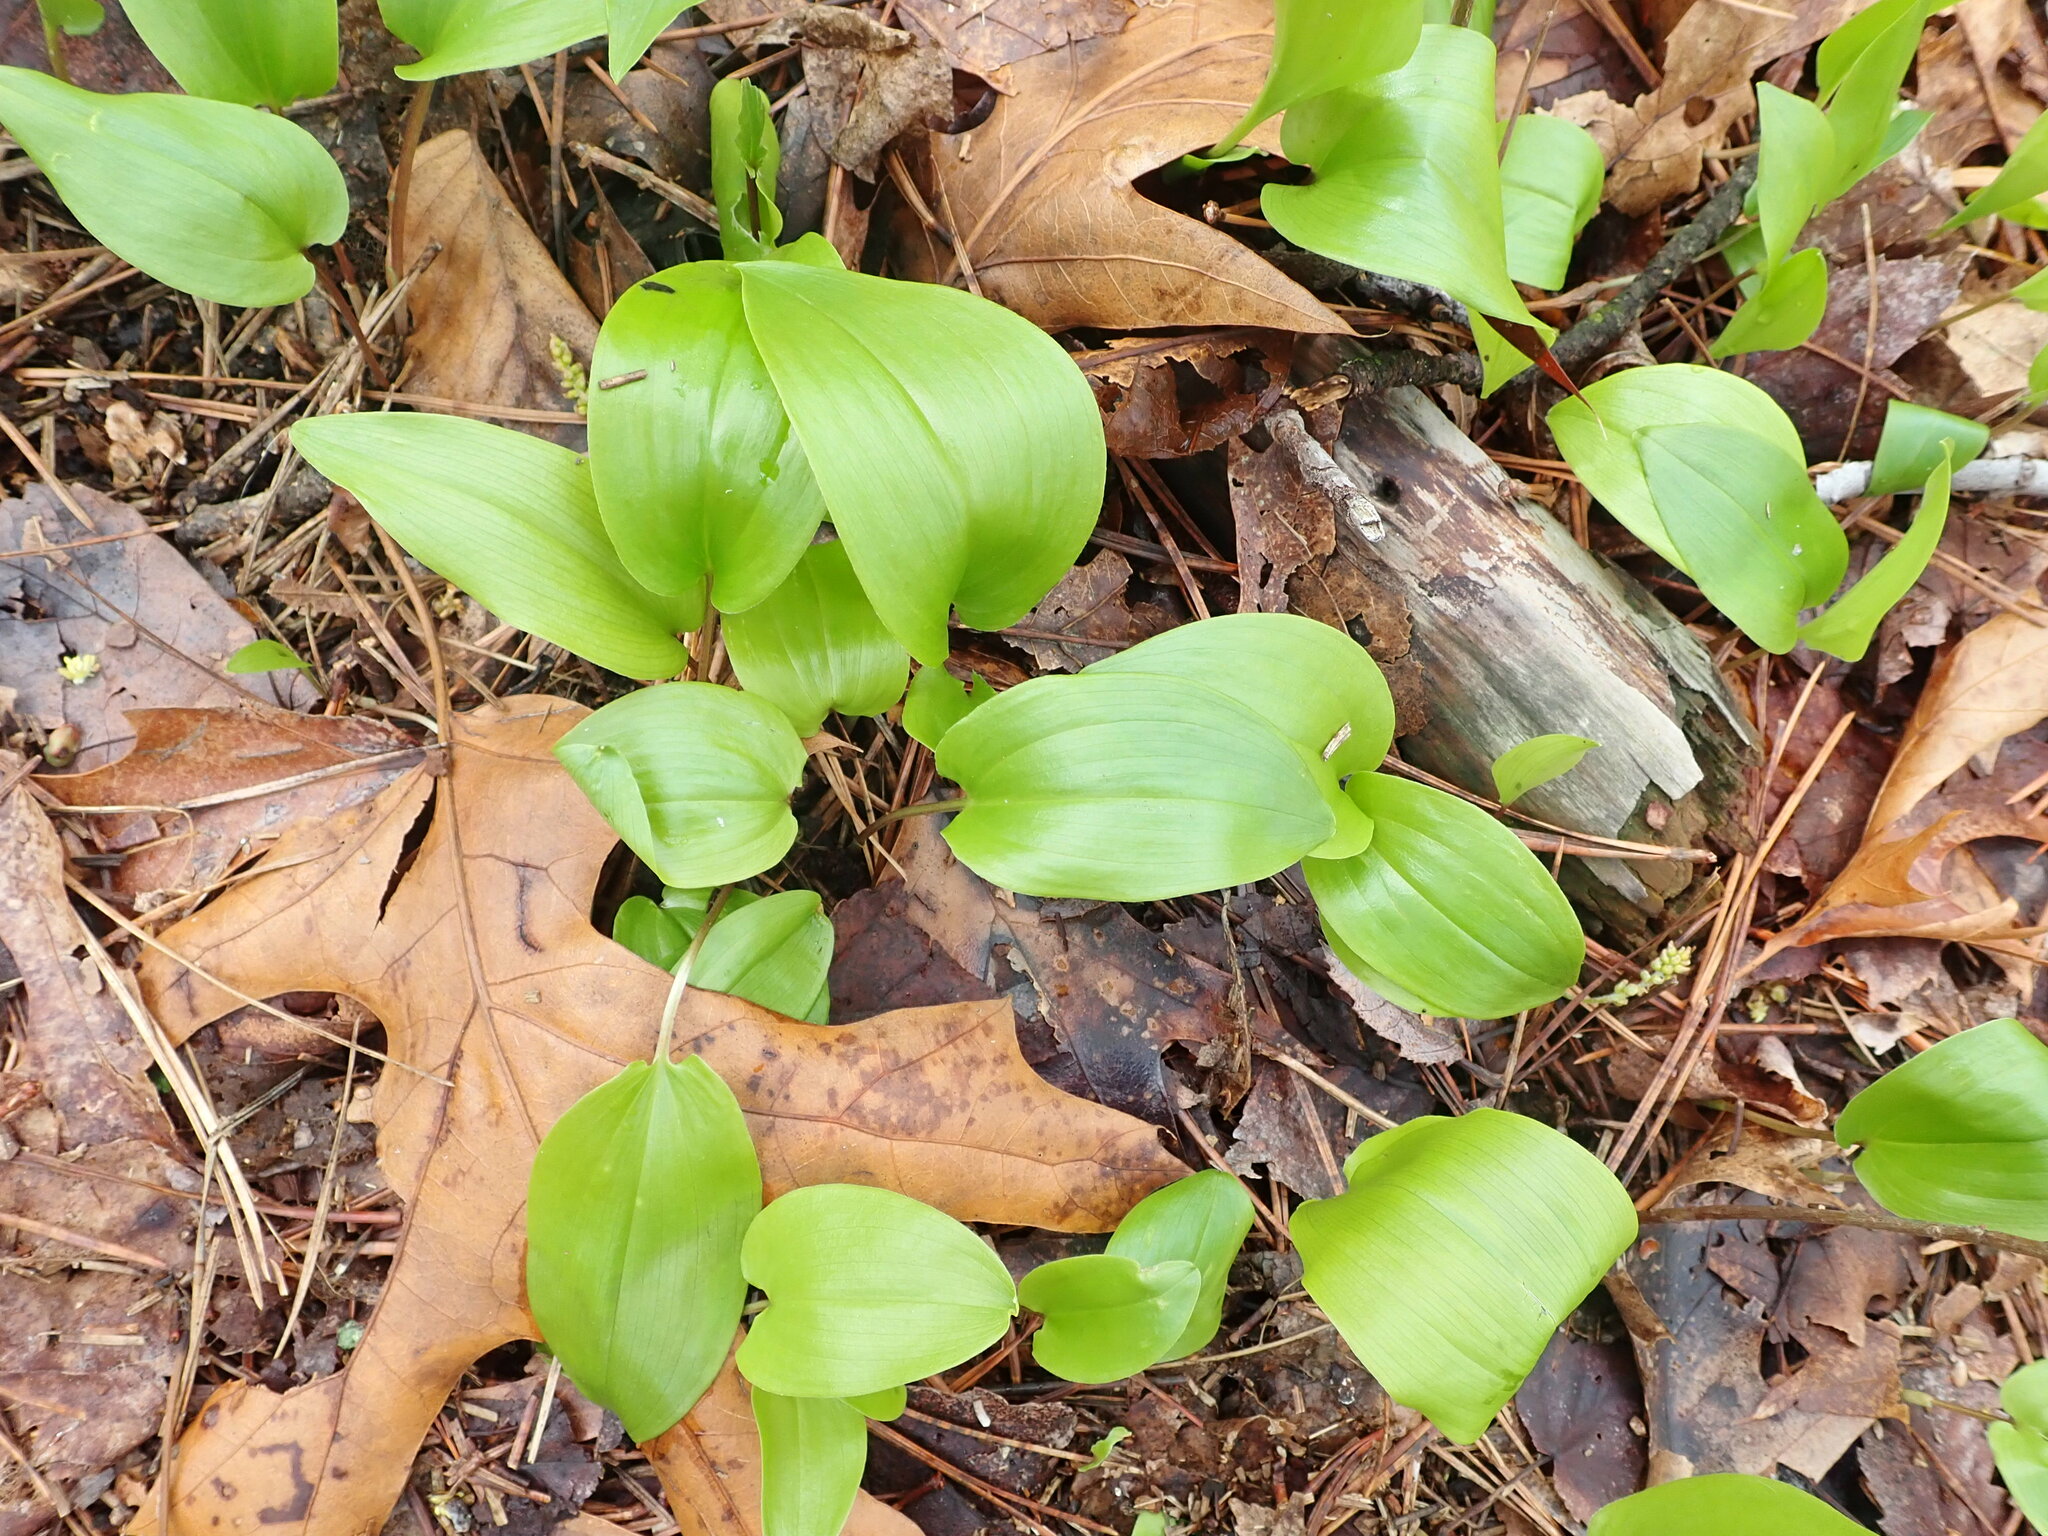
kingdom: Plantae
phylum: Tracheophyta
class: Liliopsida
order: Asparagales
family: Asparagaceae
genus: Maianthemum
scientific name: Maianthemum canadense
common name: False lily-of-the-valley
